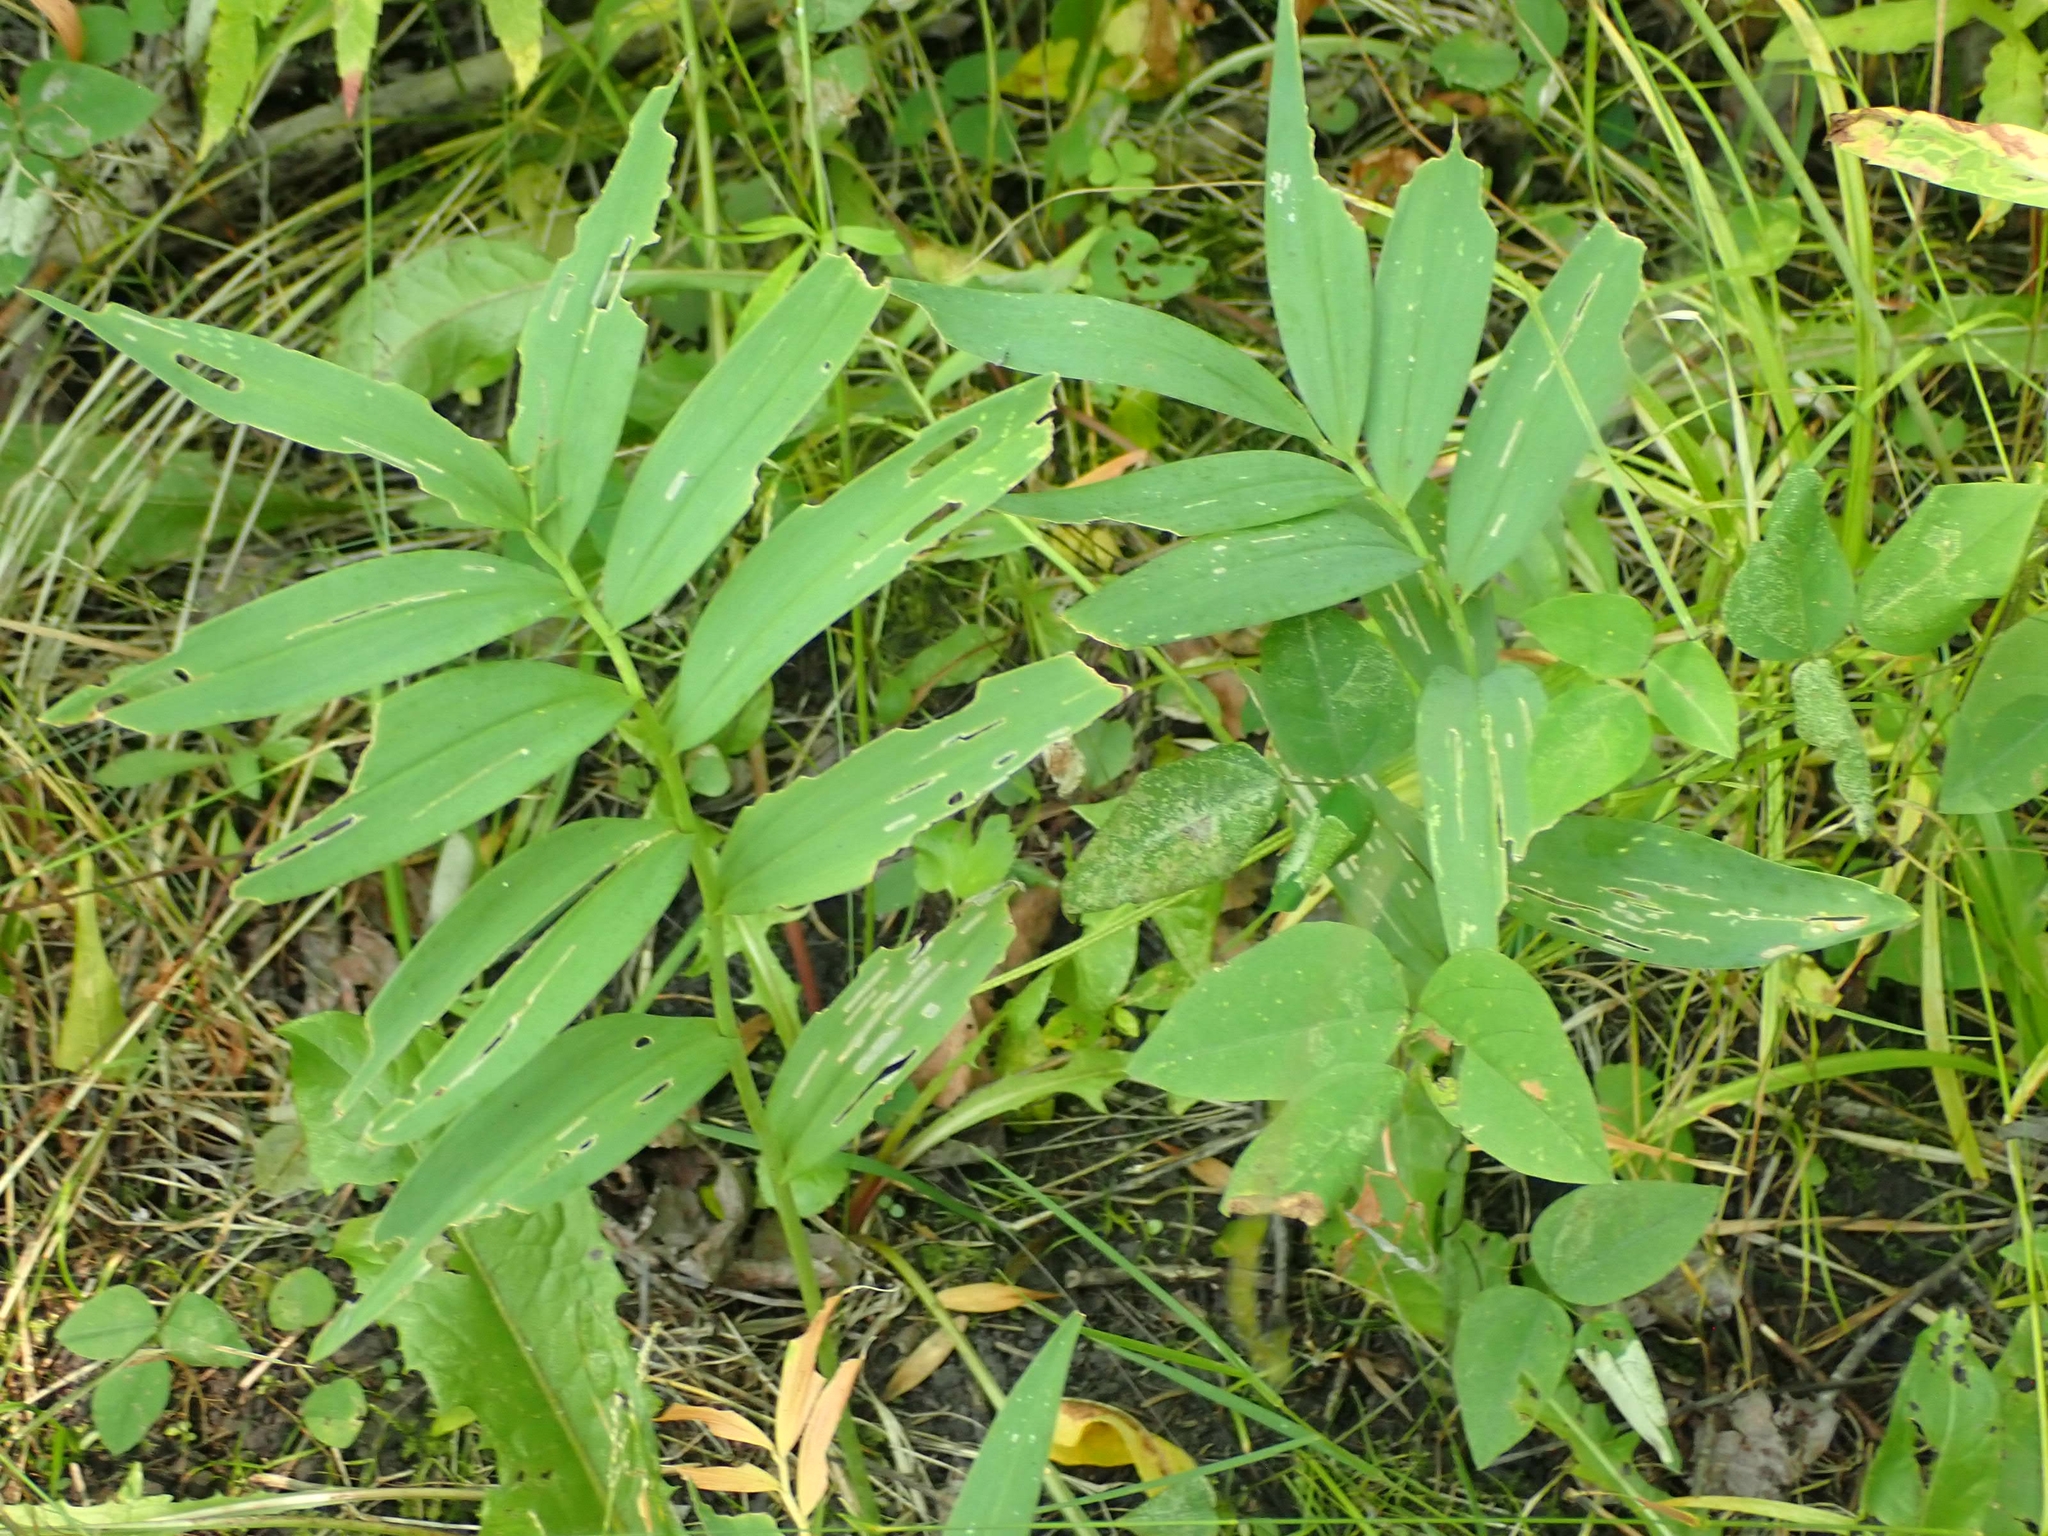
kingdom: Plantae
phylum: Tracheophyta
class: Liliopsida
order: Asparagales
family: Asparagaceae
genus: Maianthemum
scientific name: Maianthemum stellatum
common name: Little false solomon's seal
